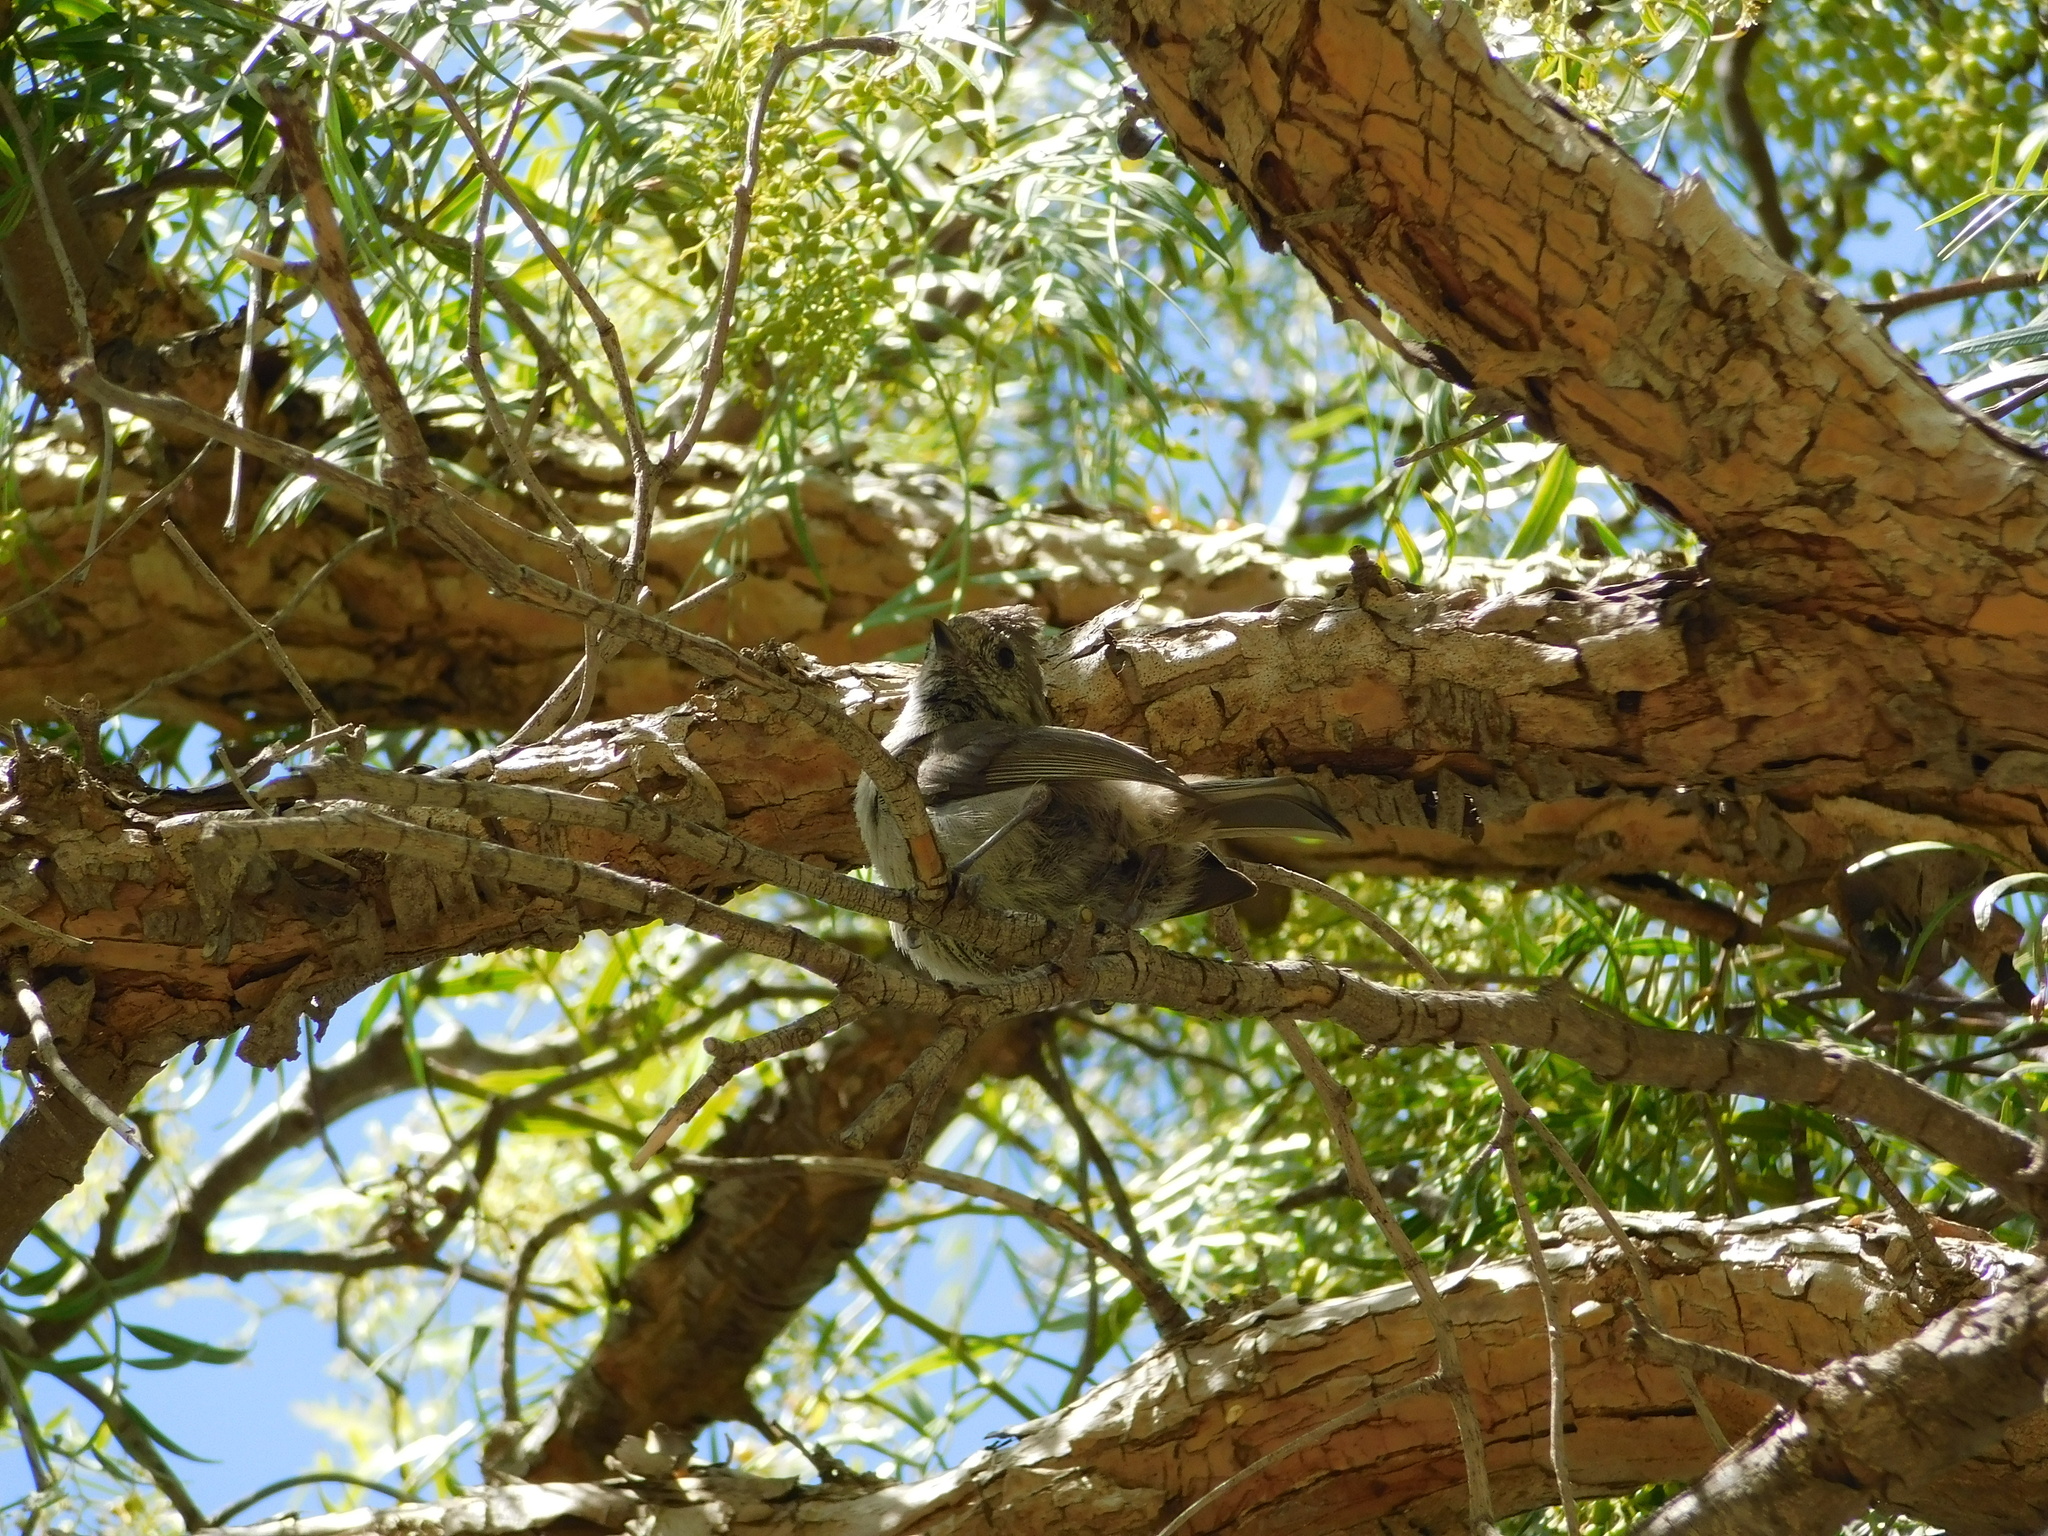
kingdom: Animalia
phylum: Chordata
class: Aves
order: Passeriformes
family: Paridae
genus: Baeolophus
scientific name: Baeolophus inornatus
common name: Oak titmouse
